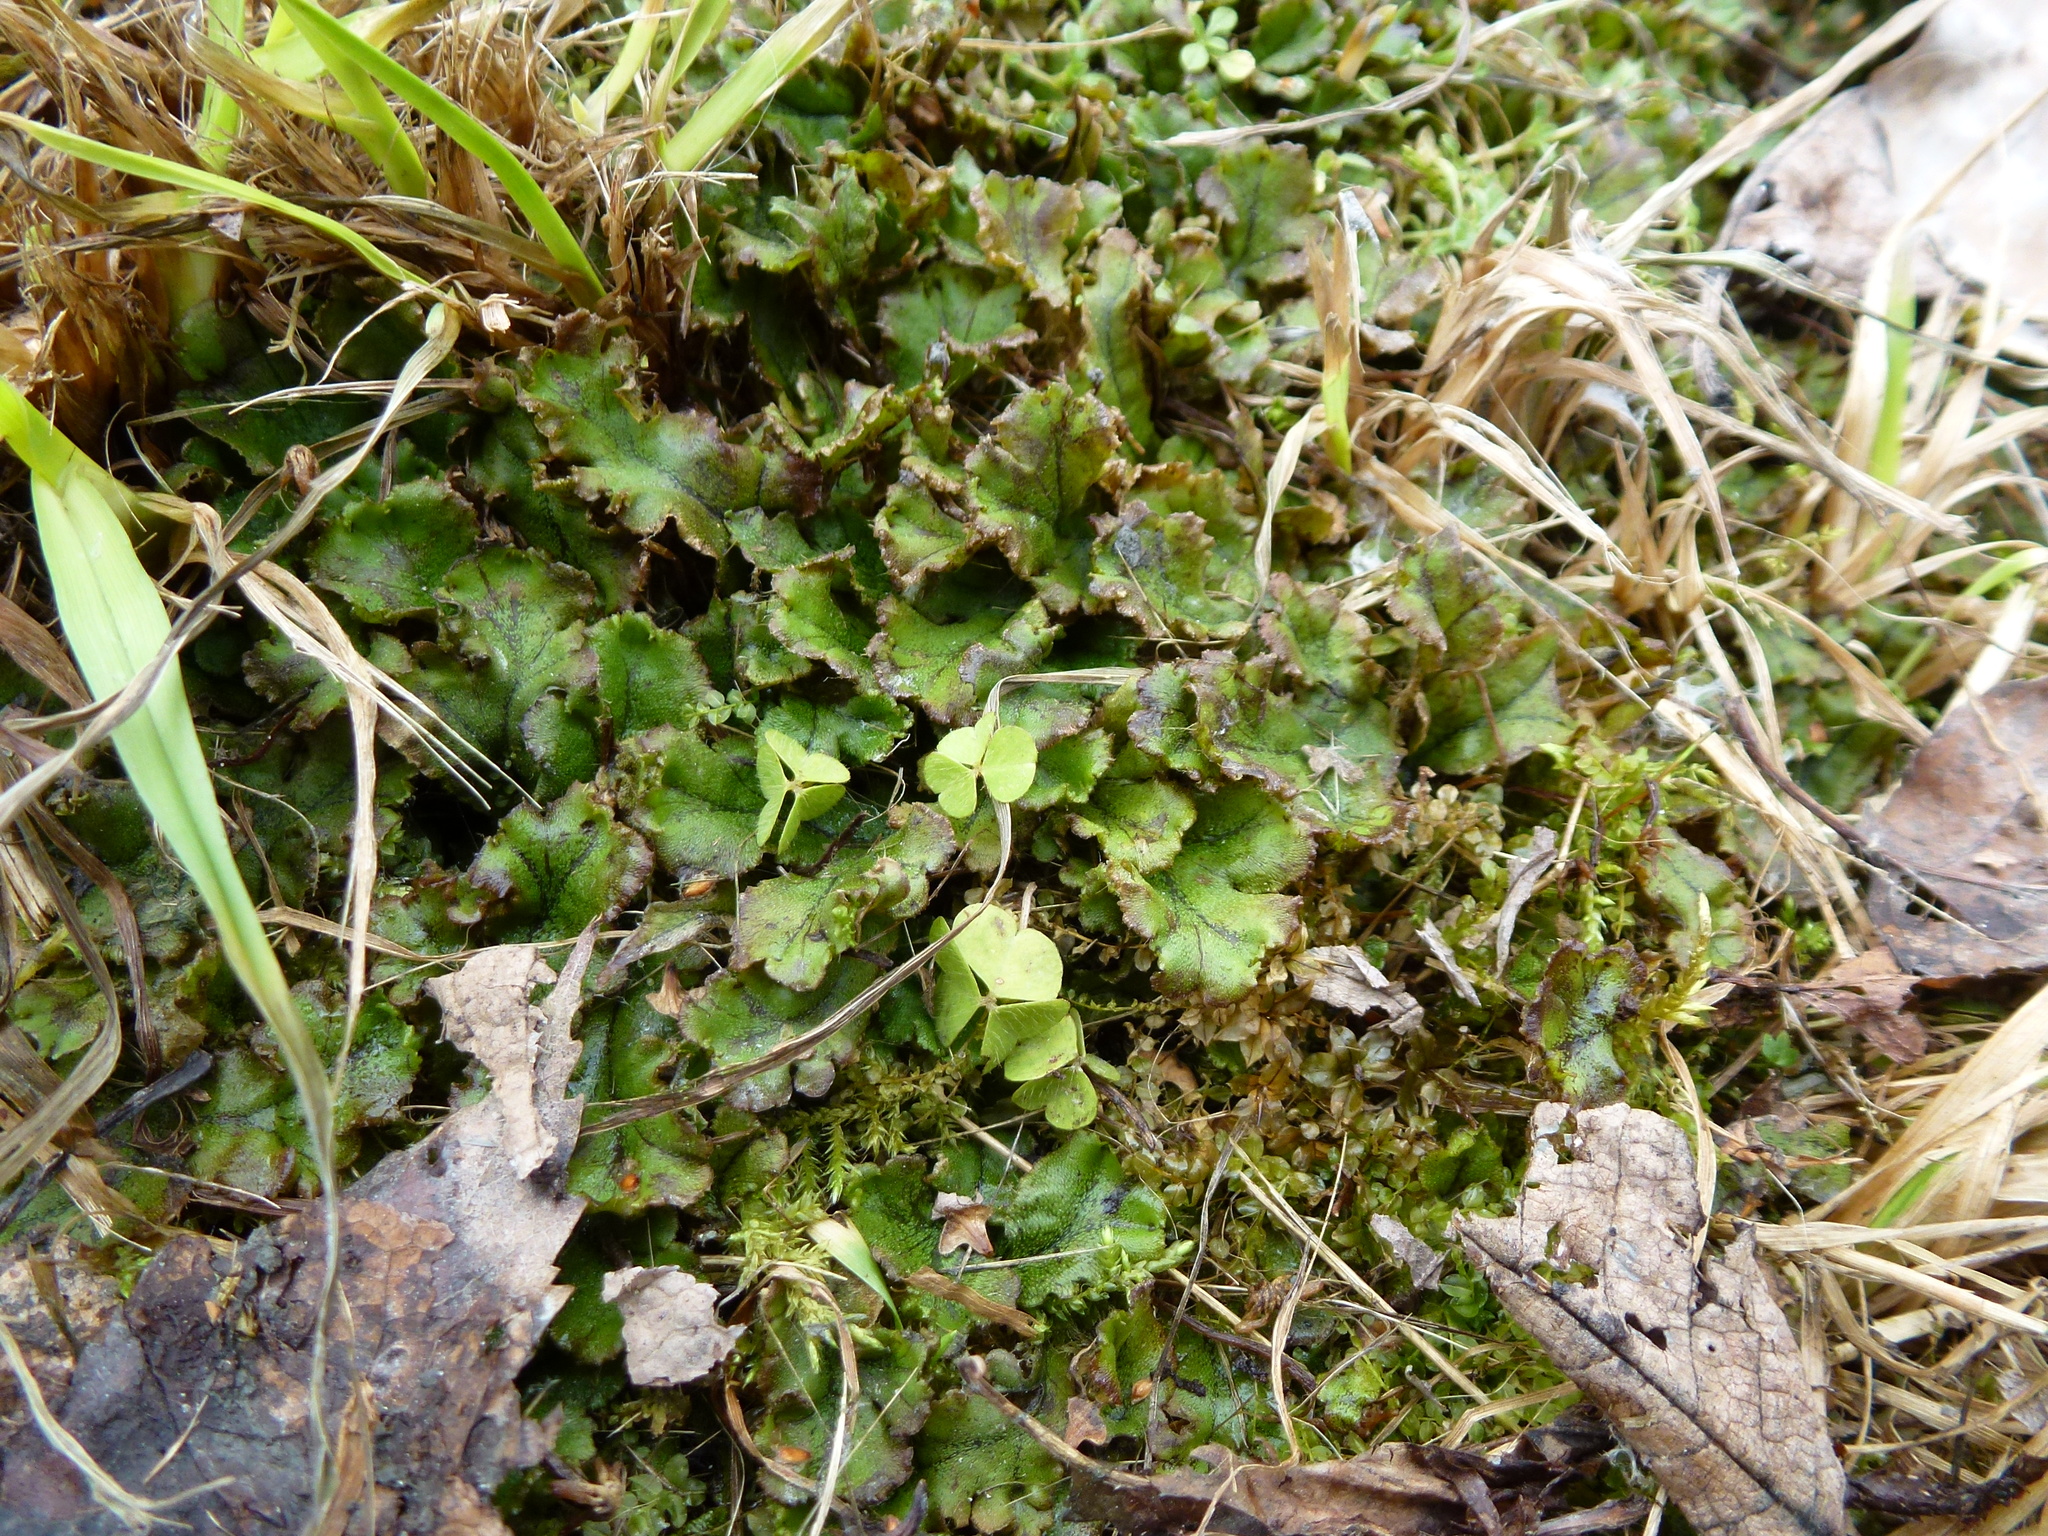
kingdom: Plantae
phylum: Marchantiophyta
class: Marchantiopsida
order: Marchantiales
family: Marchantiaceae
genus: Marchantia
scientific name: Marchantia polymorpha
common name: Common liverwort
